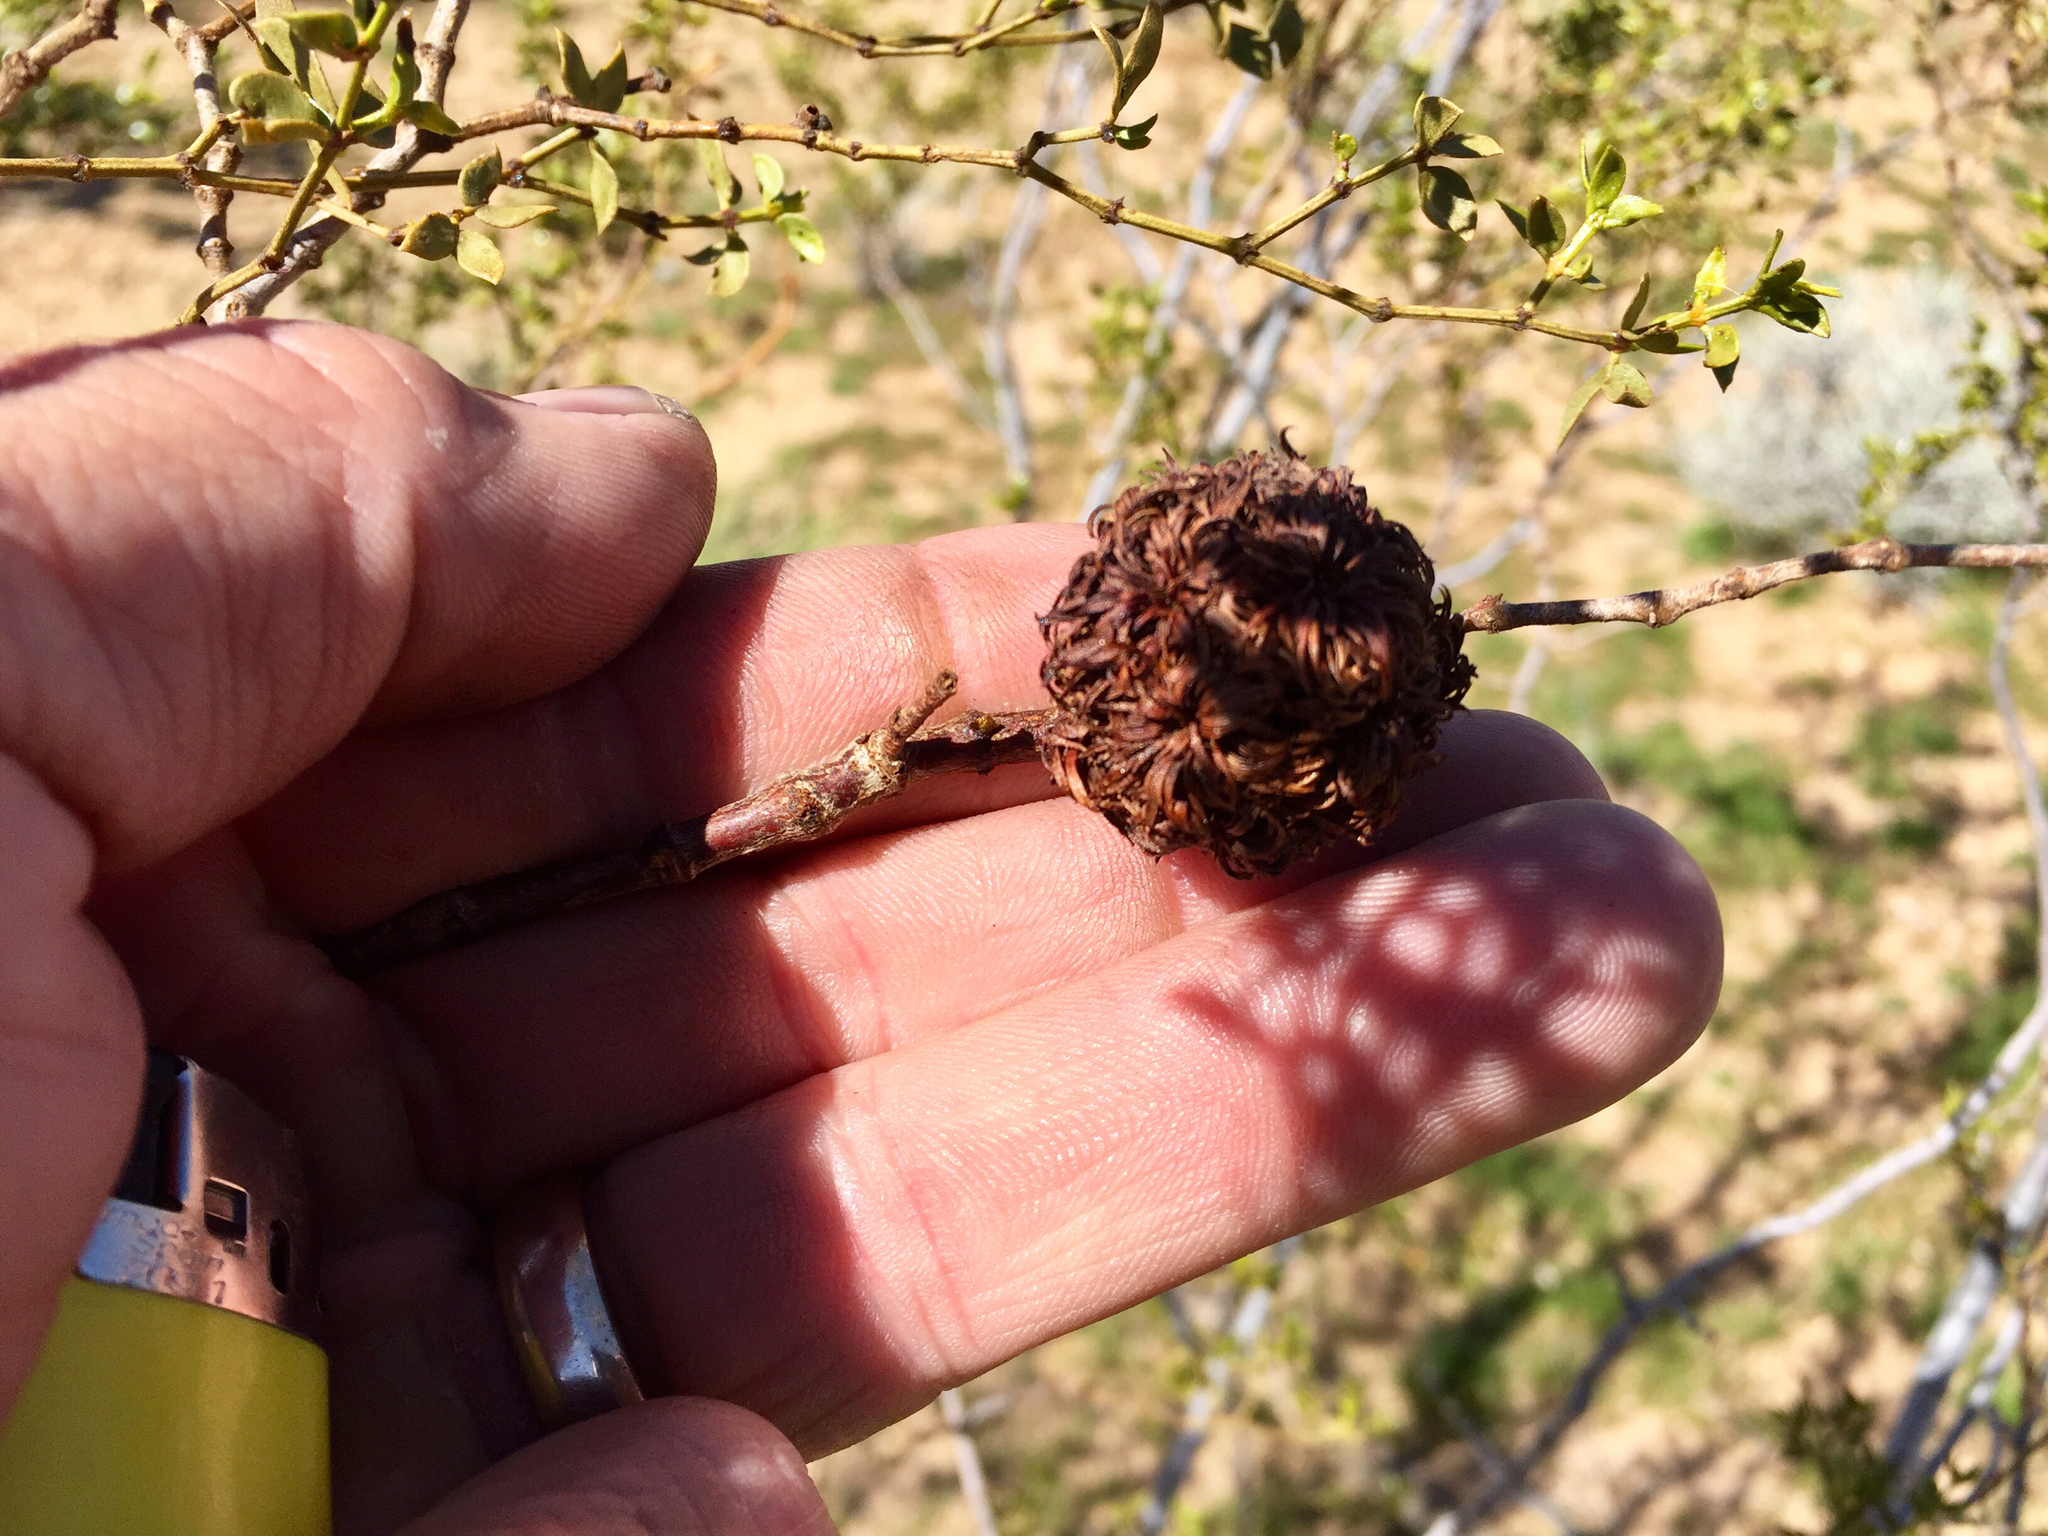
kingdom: Animalia
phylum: Arthropoda
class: Insecta
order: Diptera
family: Cecidomyiidae
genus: Asphondylia
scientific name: Asphondylia auripila
